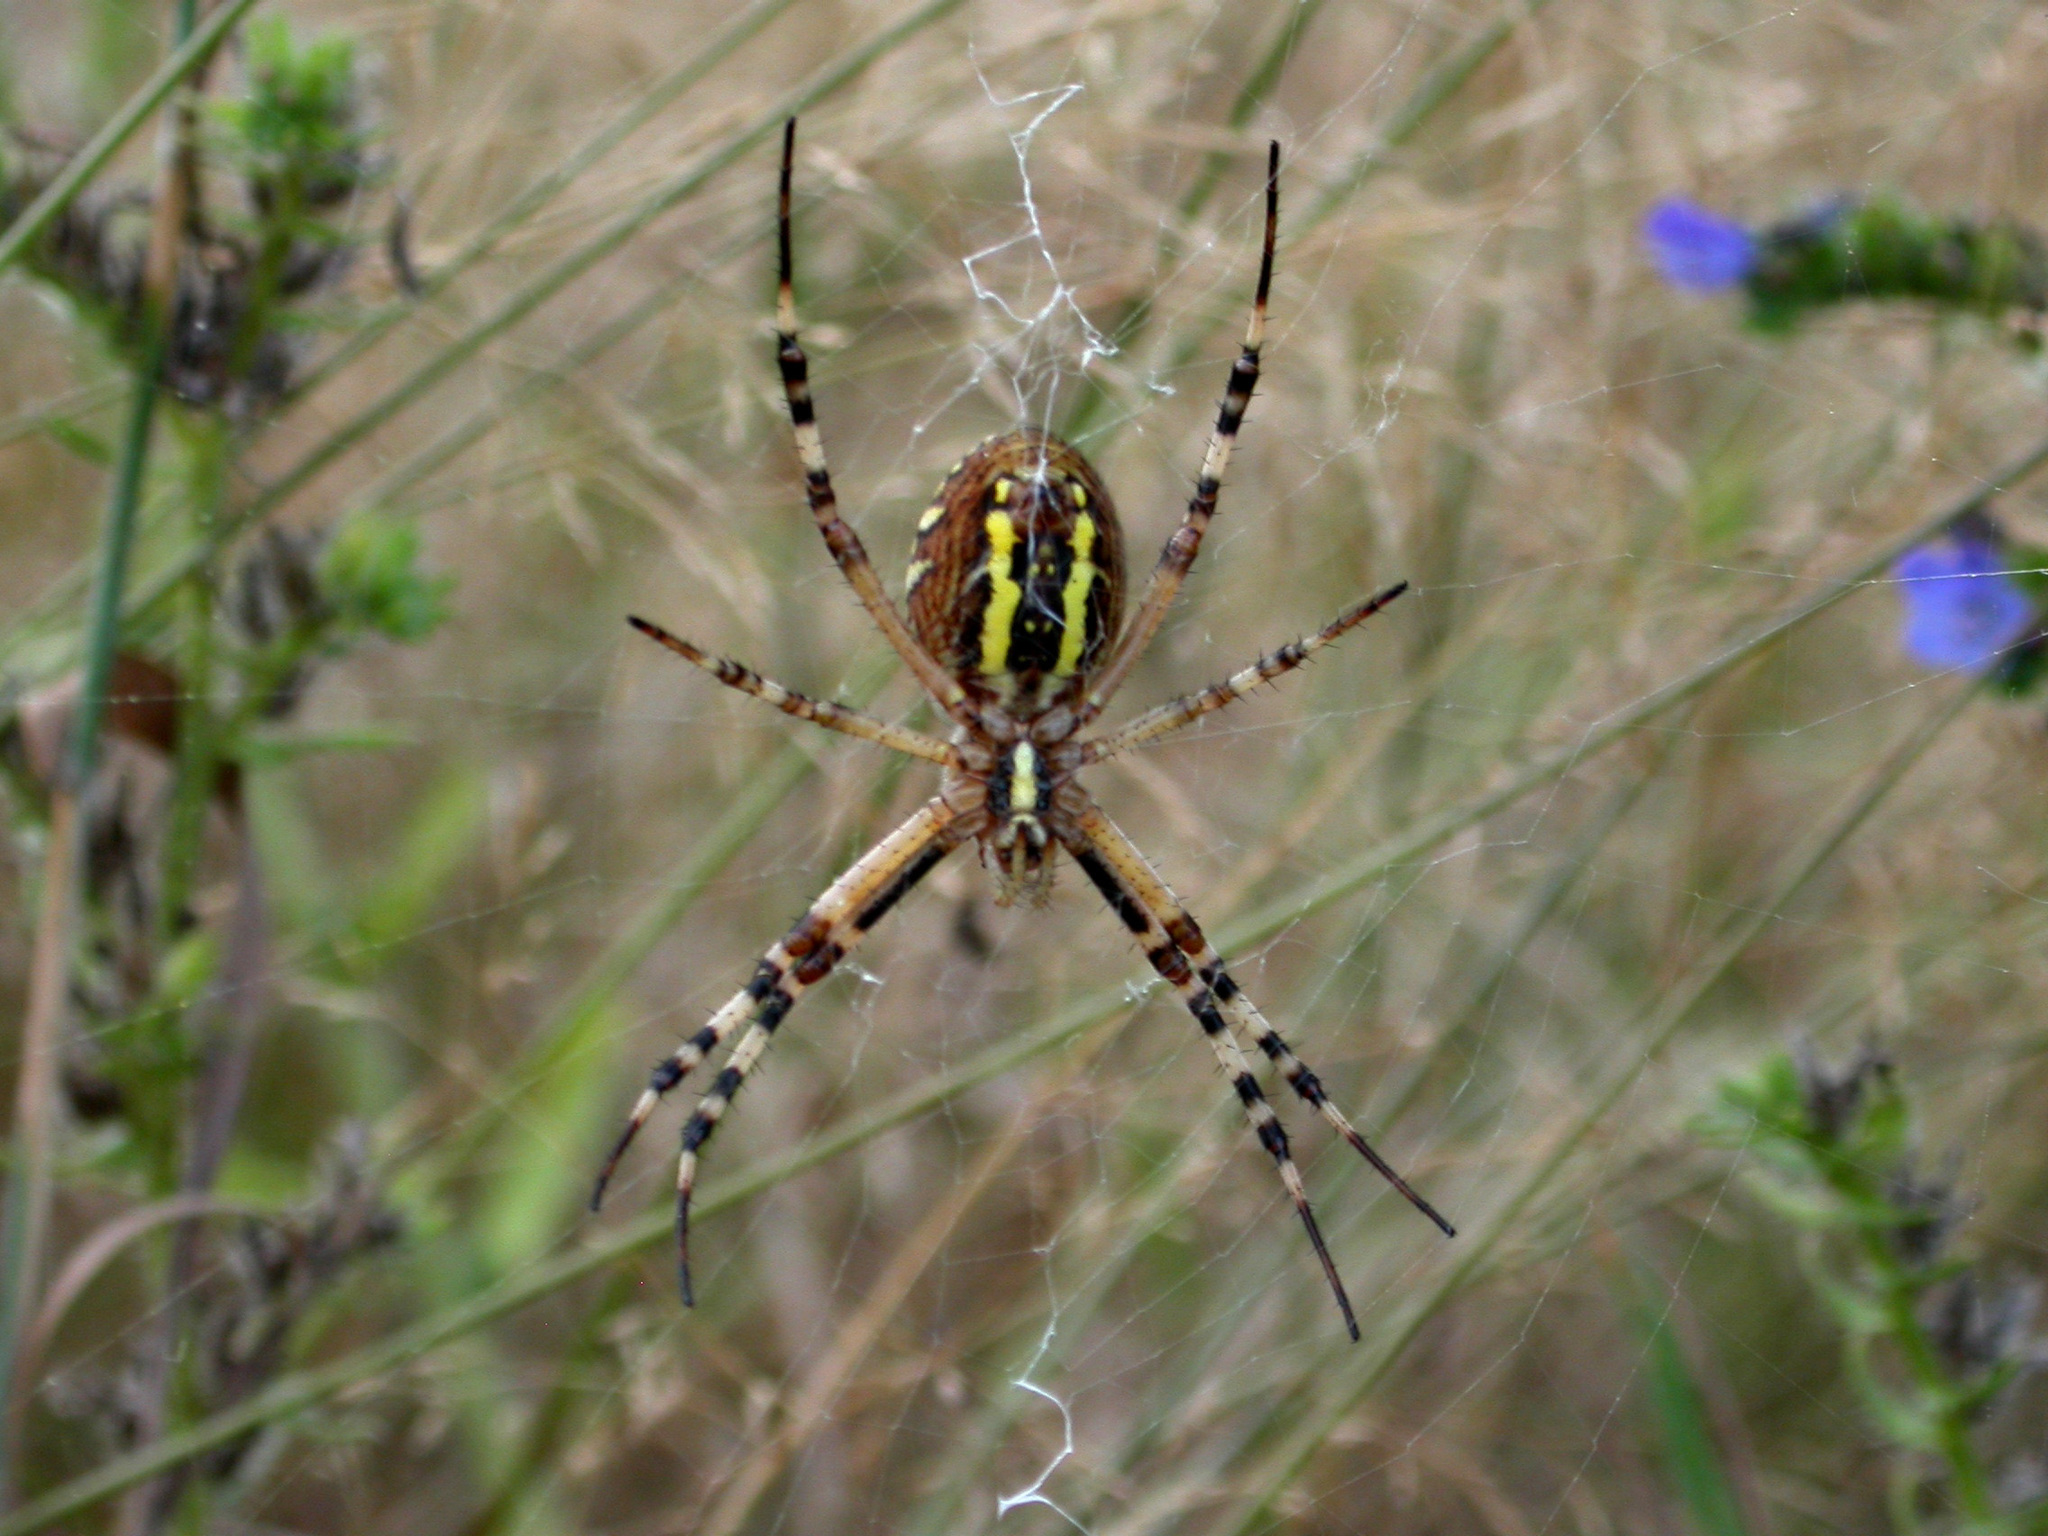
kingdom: Animalia
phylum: Arthropoda
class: Arachnida
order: Araneae
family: Araneidae
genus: Argiope
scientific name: Argiope bruennichi
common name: Wasp spider
